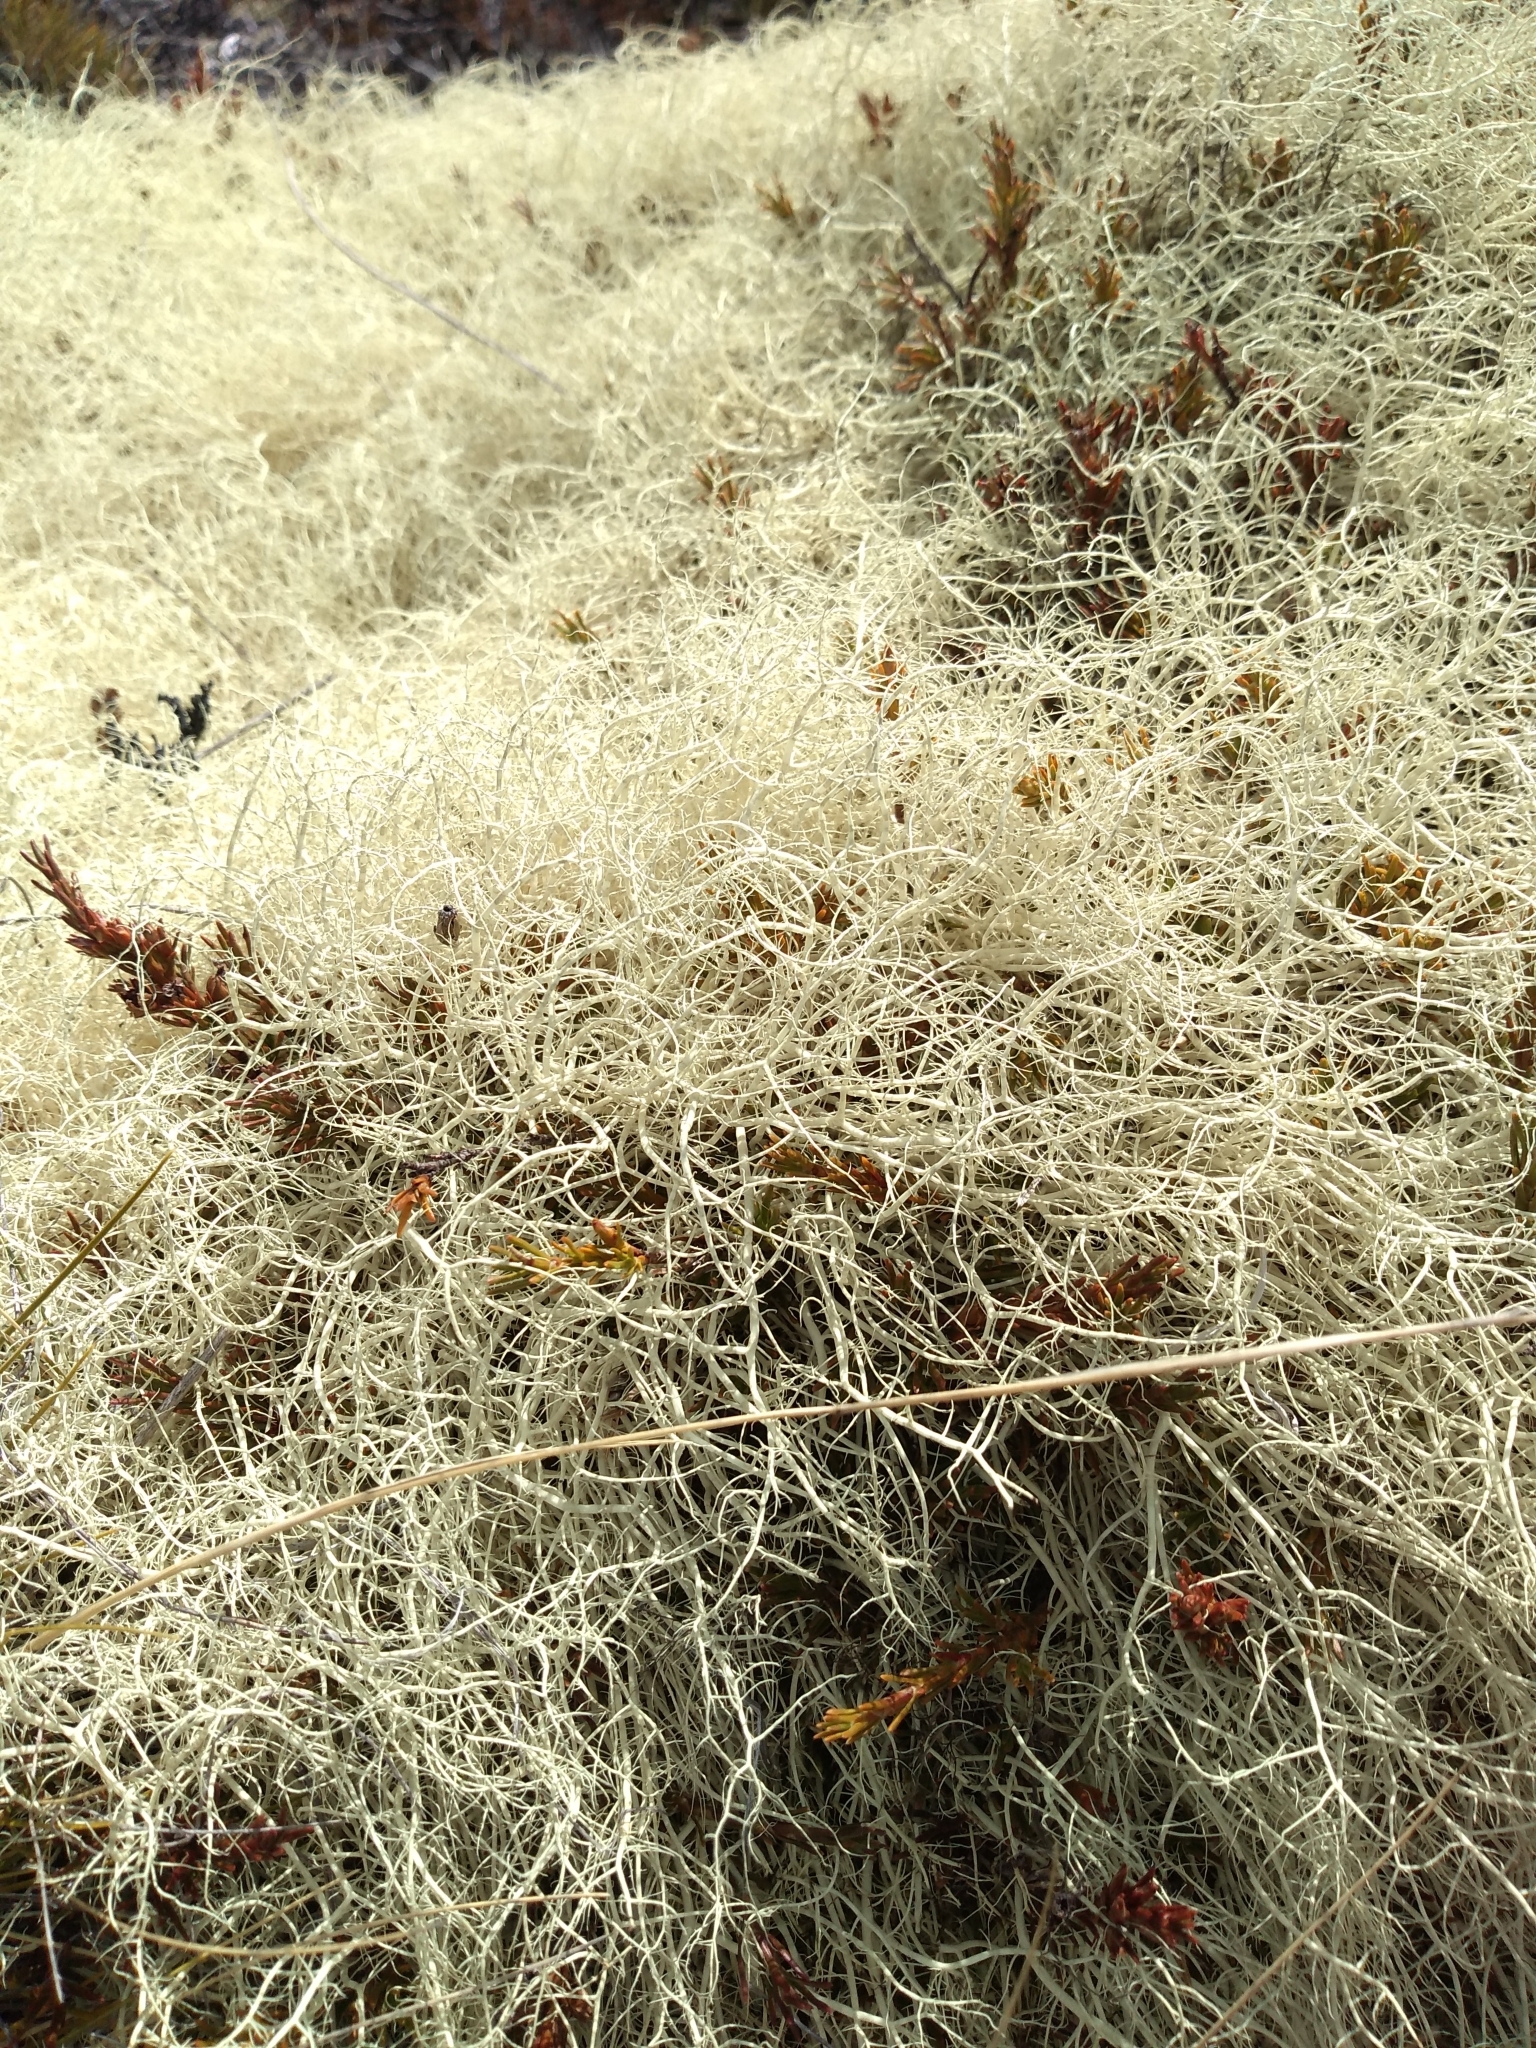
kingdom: Fungi
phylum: Ascomycota
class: Lecanoromycetes
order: Lecanorales
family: Parmeliaceae
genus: Usnea
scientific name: Usnea contexta
